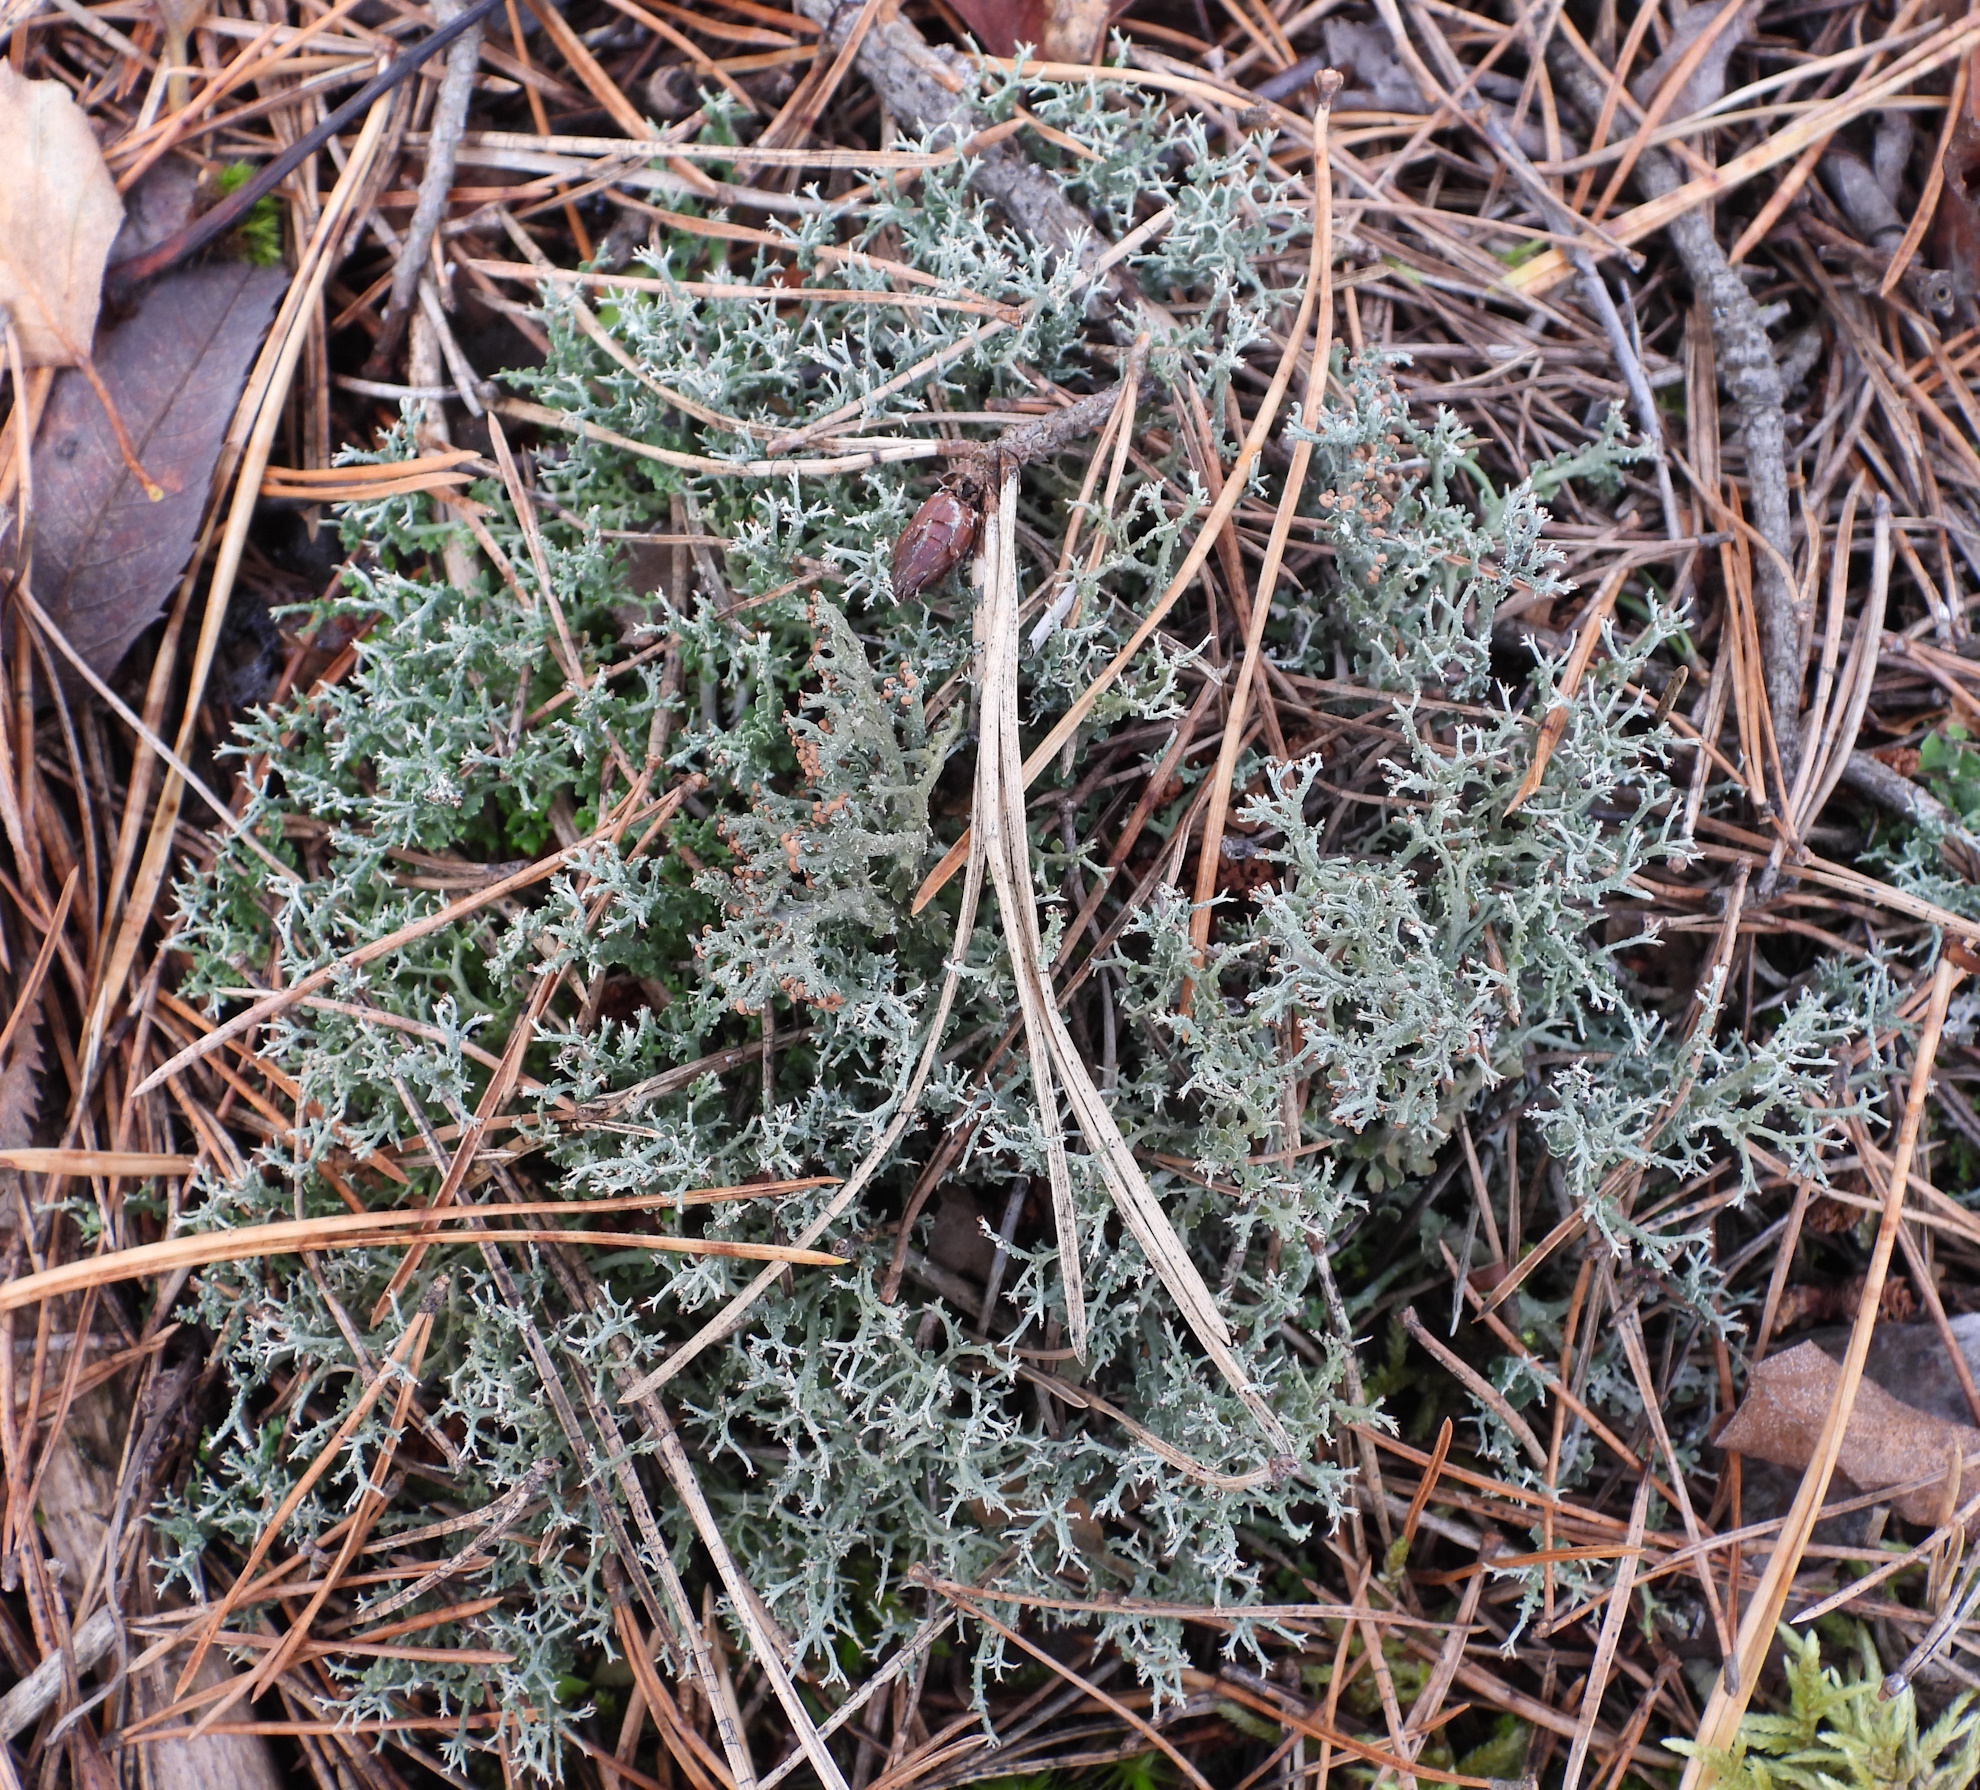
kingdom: Fungi
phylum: Ascomycota
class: Lecanoromycetes
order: Lecanorales
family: Cladoniaceae
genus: Cladonia
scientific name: Cladonia furcata
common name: Many-forked cladonia
